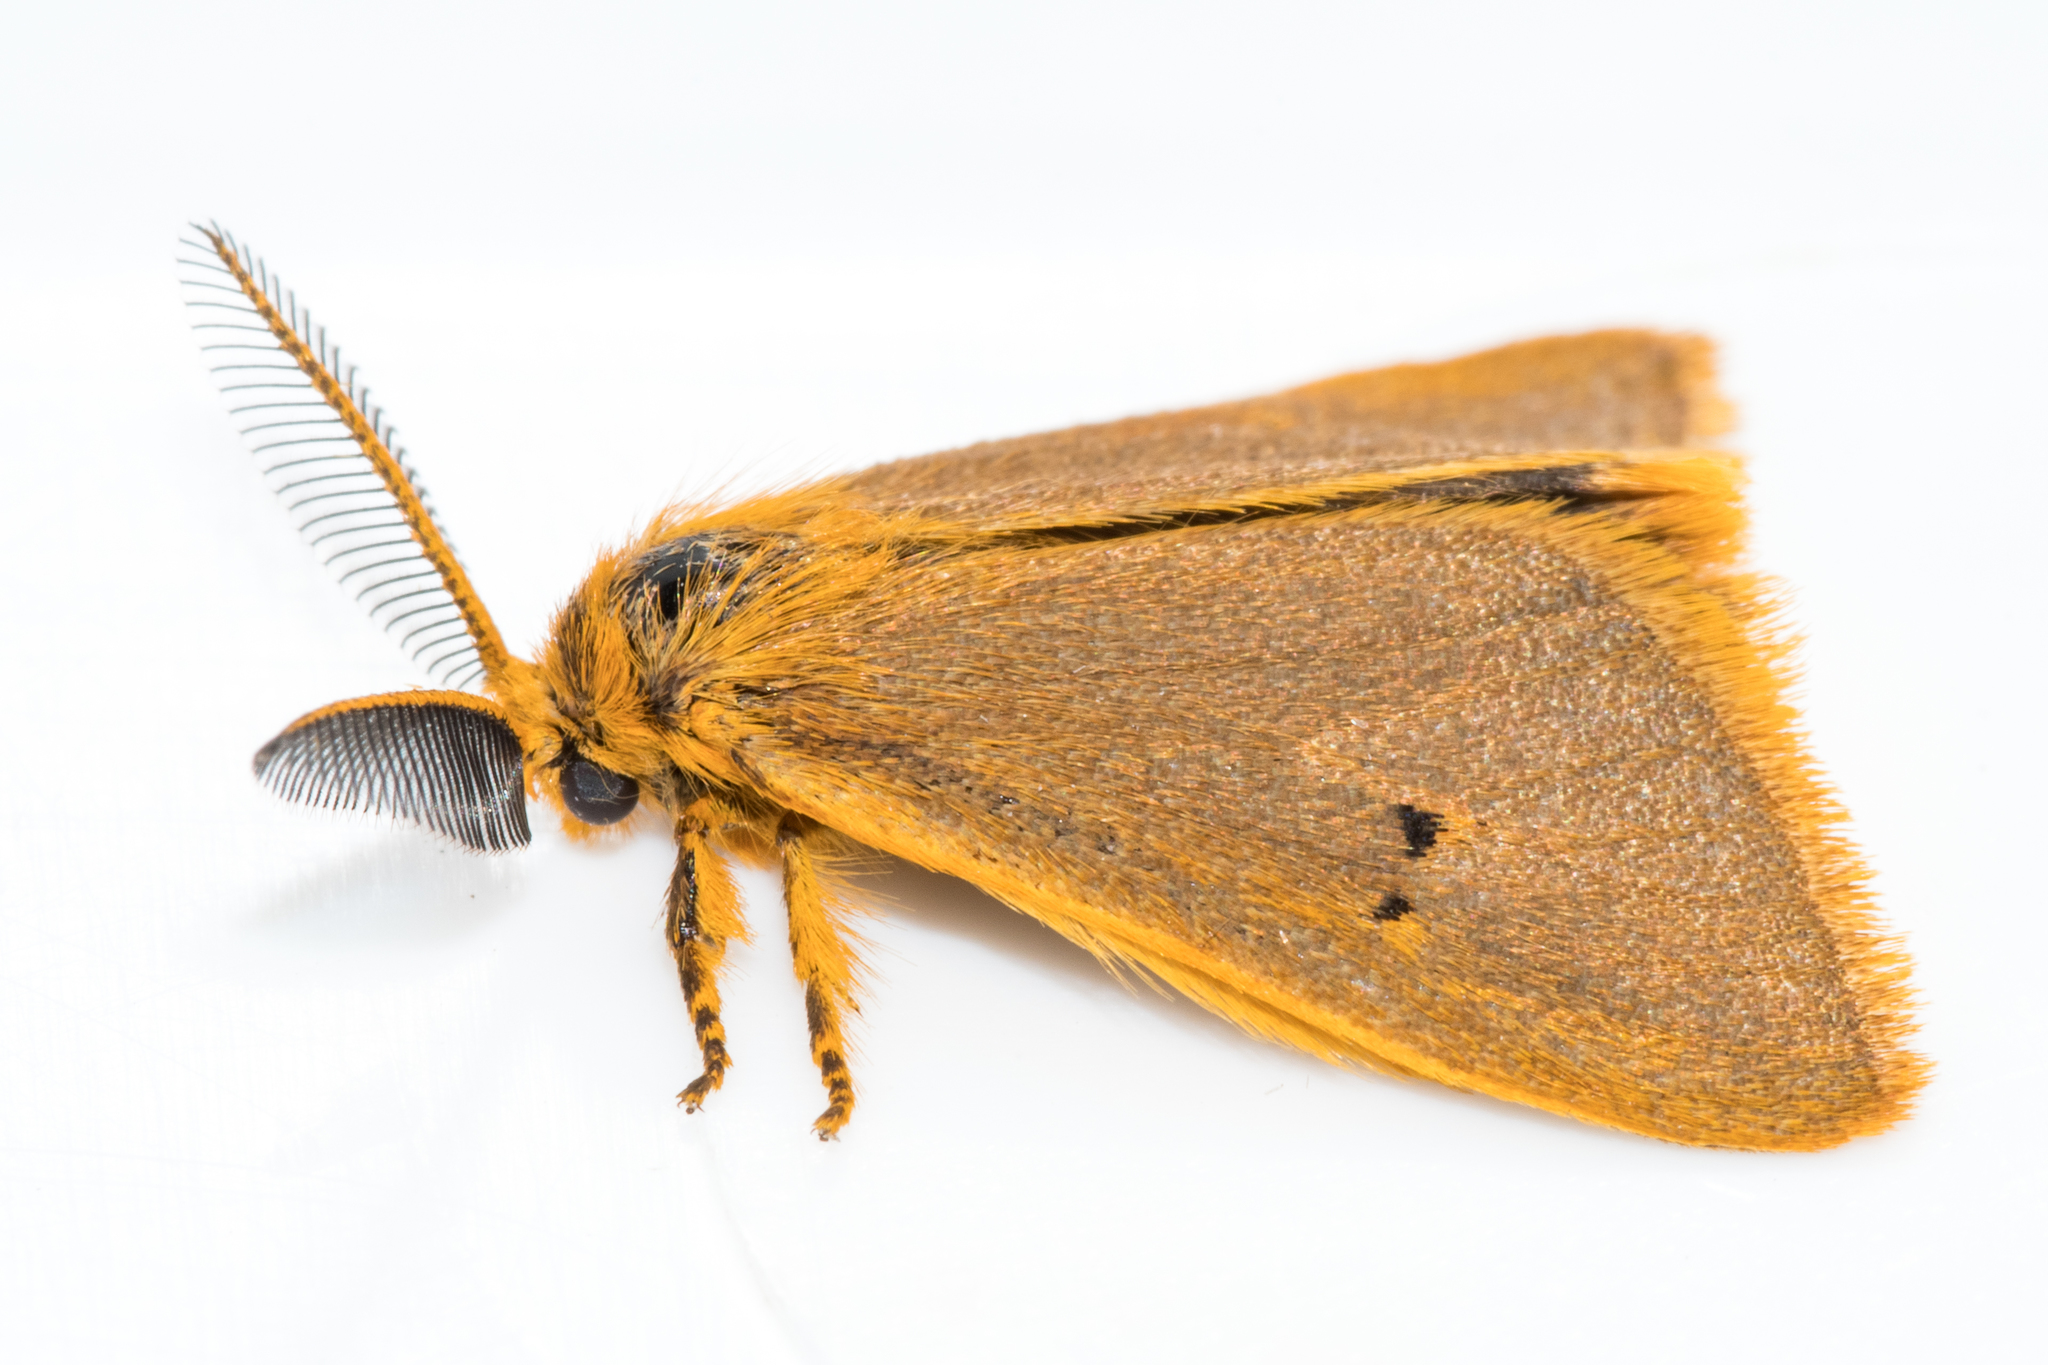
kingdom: Animalia
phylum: Arthropoda
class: Insecta
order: Lepidoptera
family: Erebidae
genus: Bracharoa
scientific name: Bracharoa dregei
